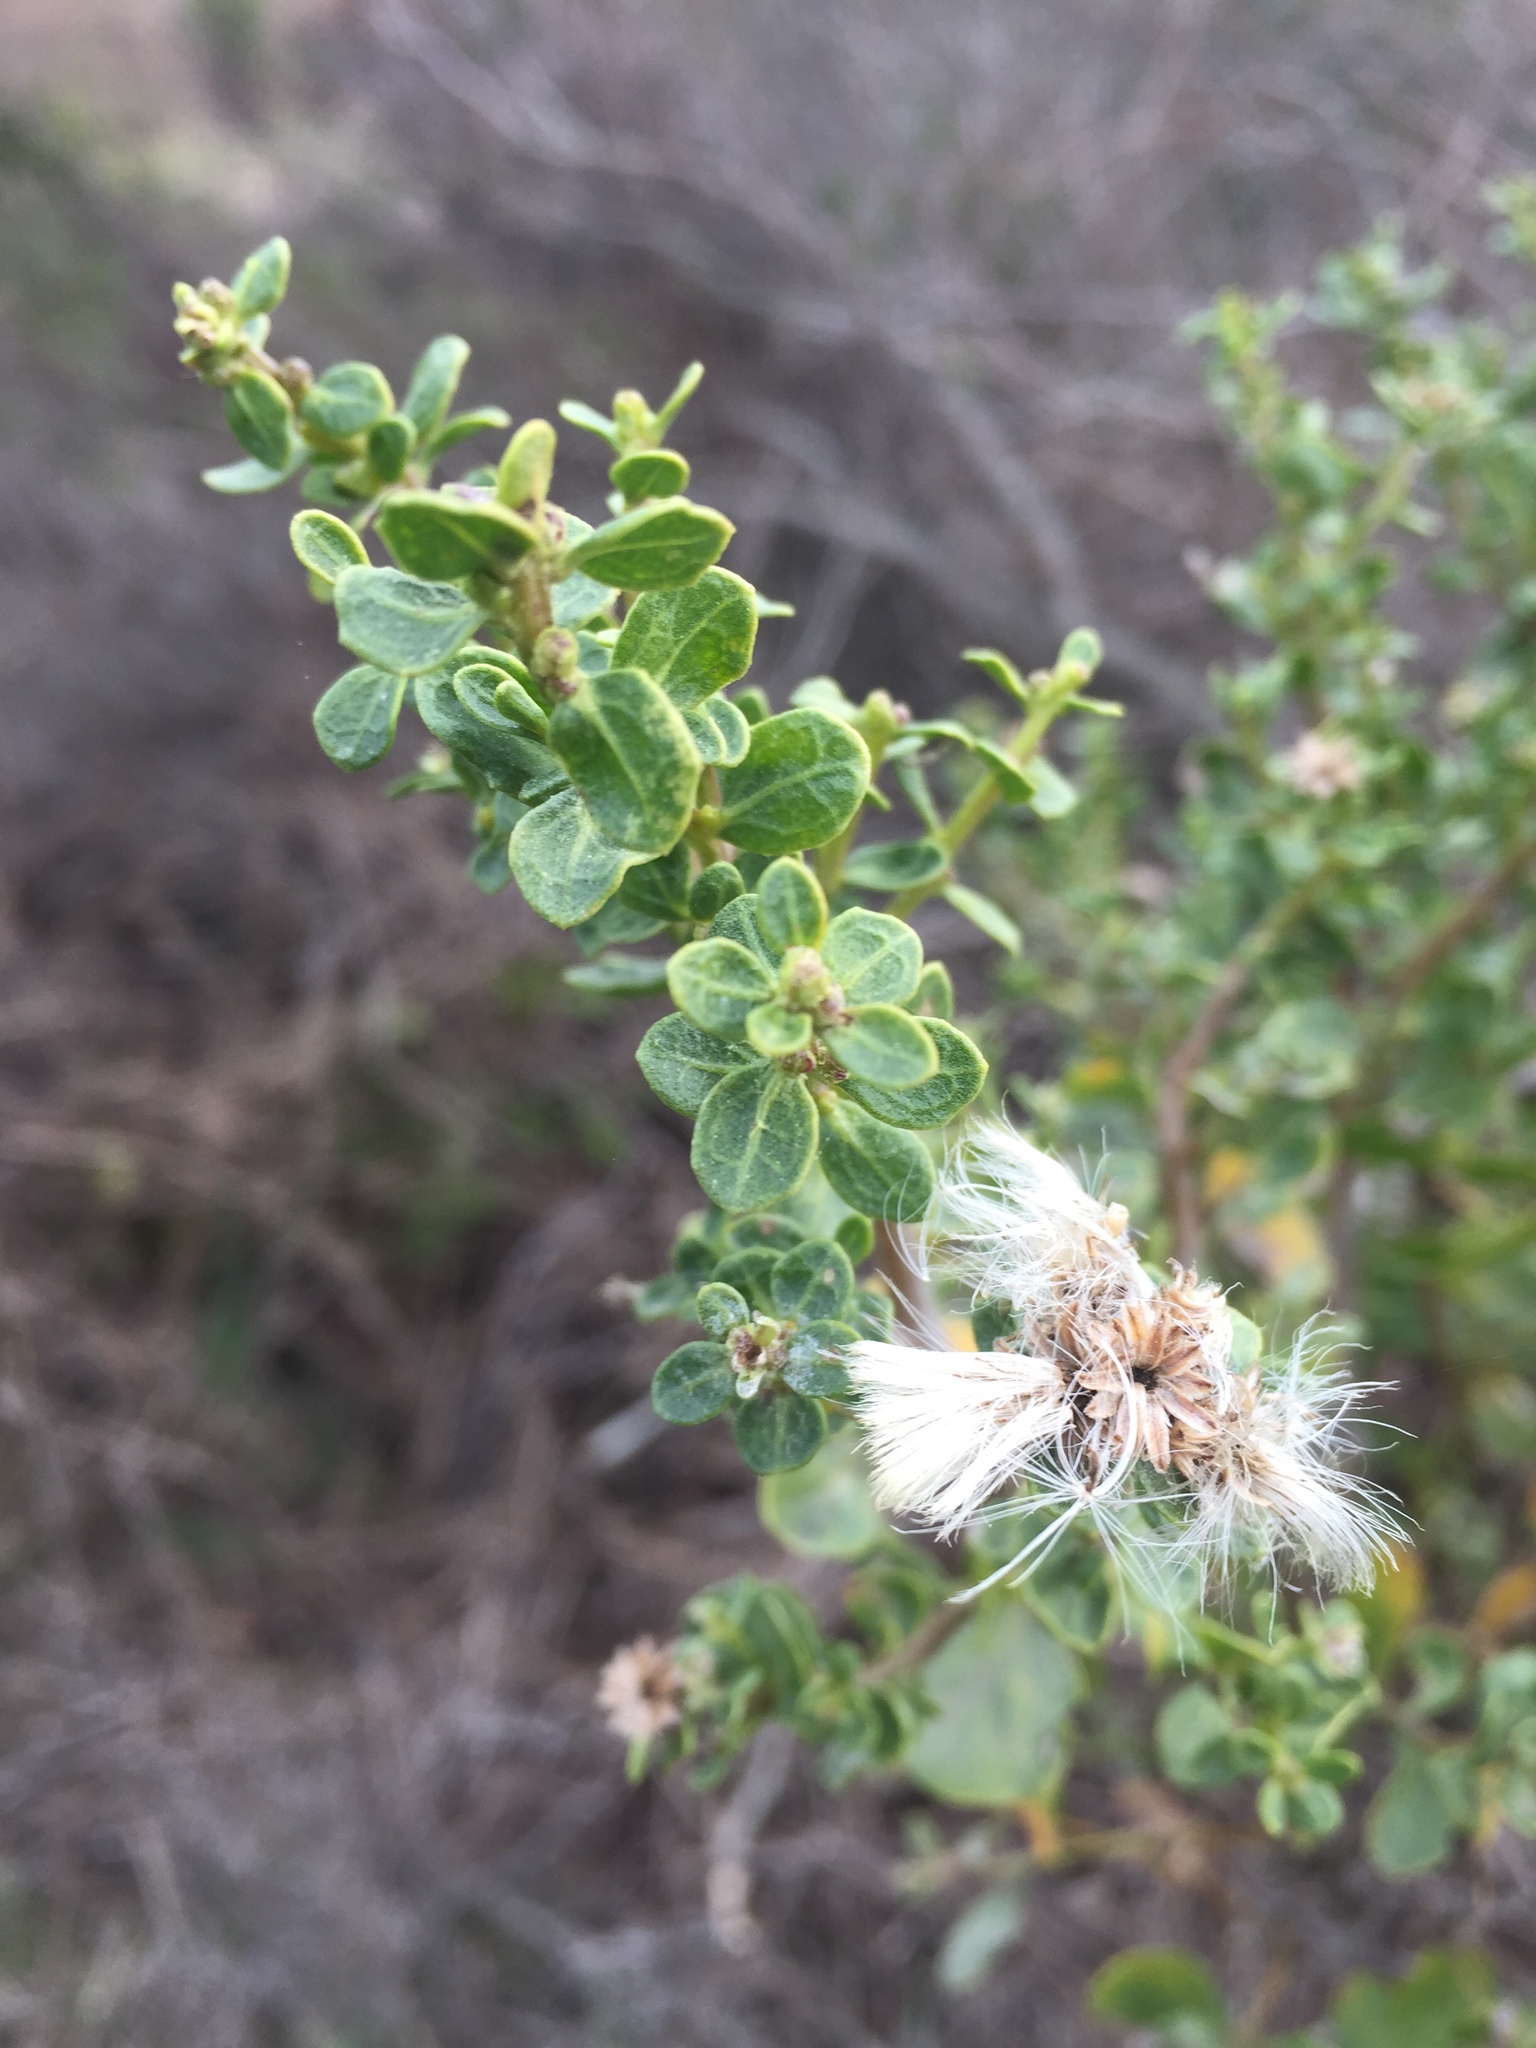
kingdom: Plantae
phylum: Tracheophyta
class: Magnoliopsida
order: Asterales
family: Asteraceae
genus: Baccharis
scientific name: Baccharis pilularis
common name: Coyotebrush
